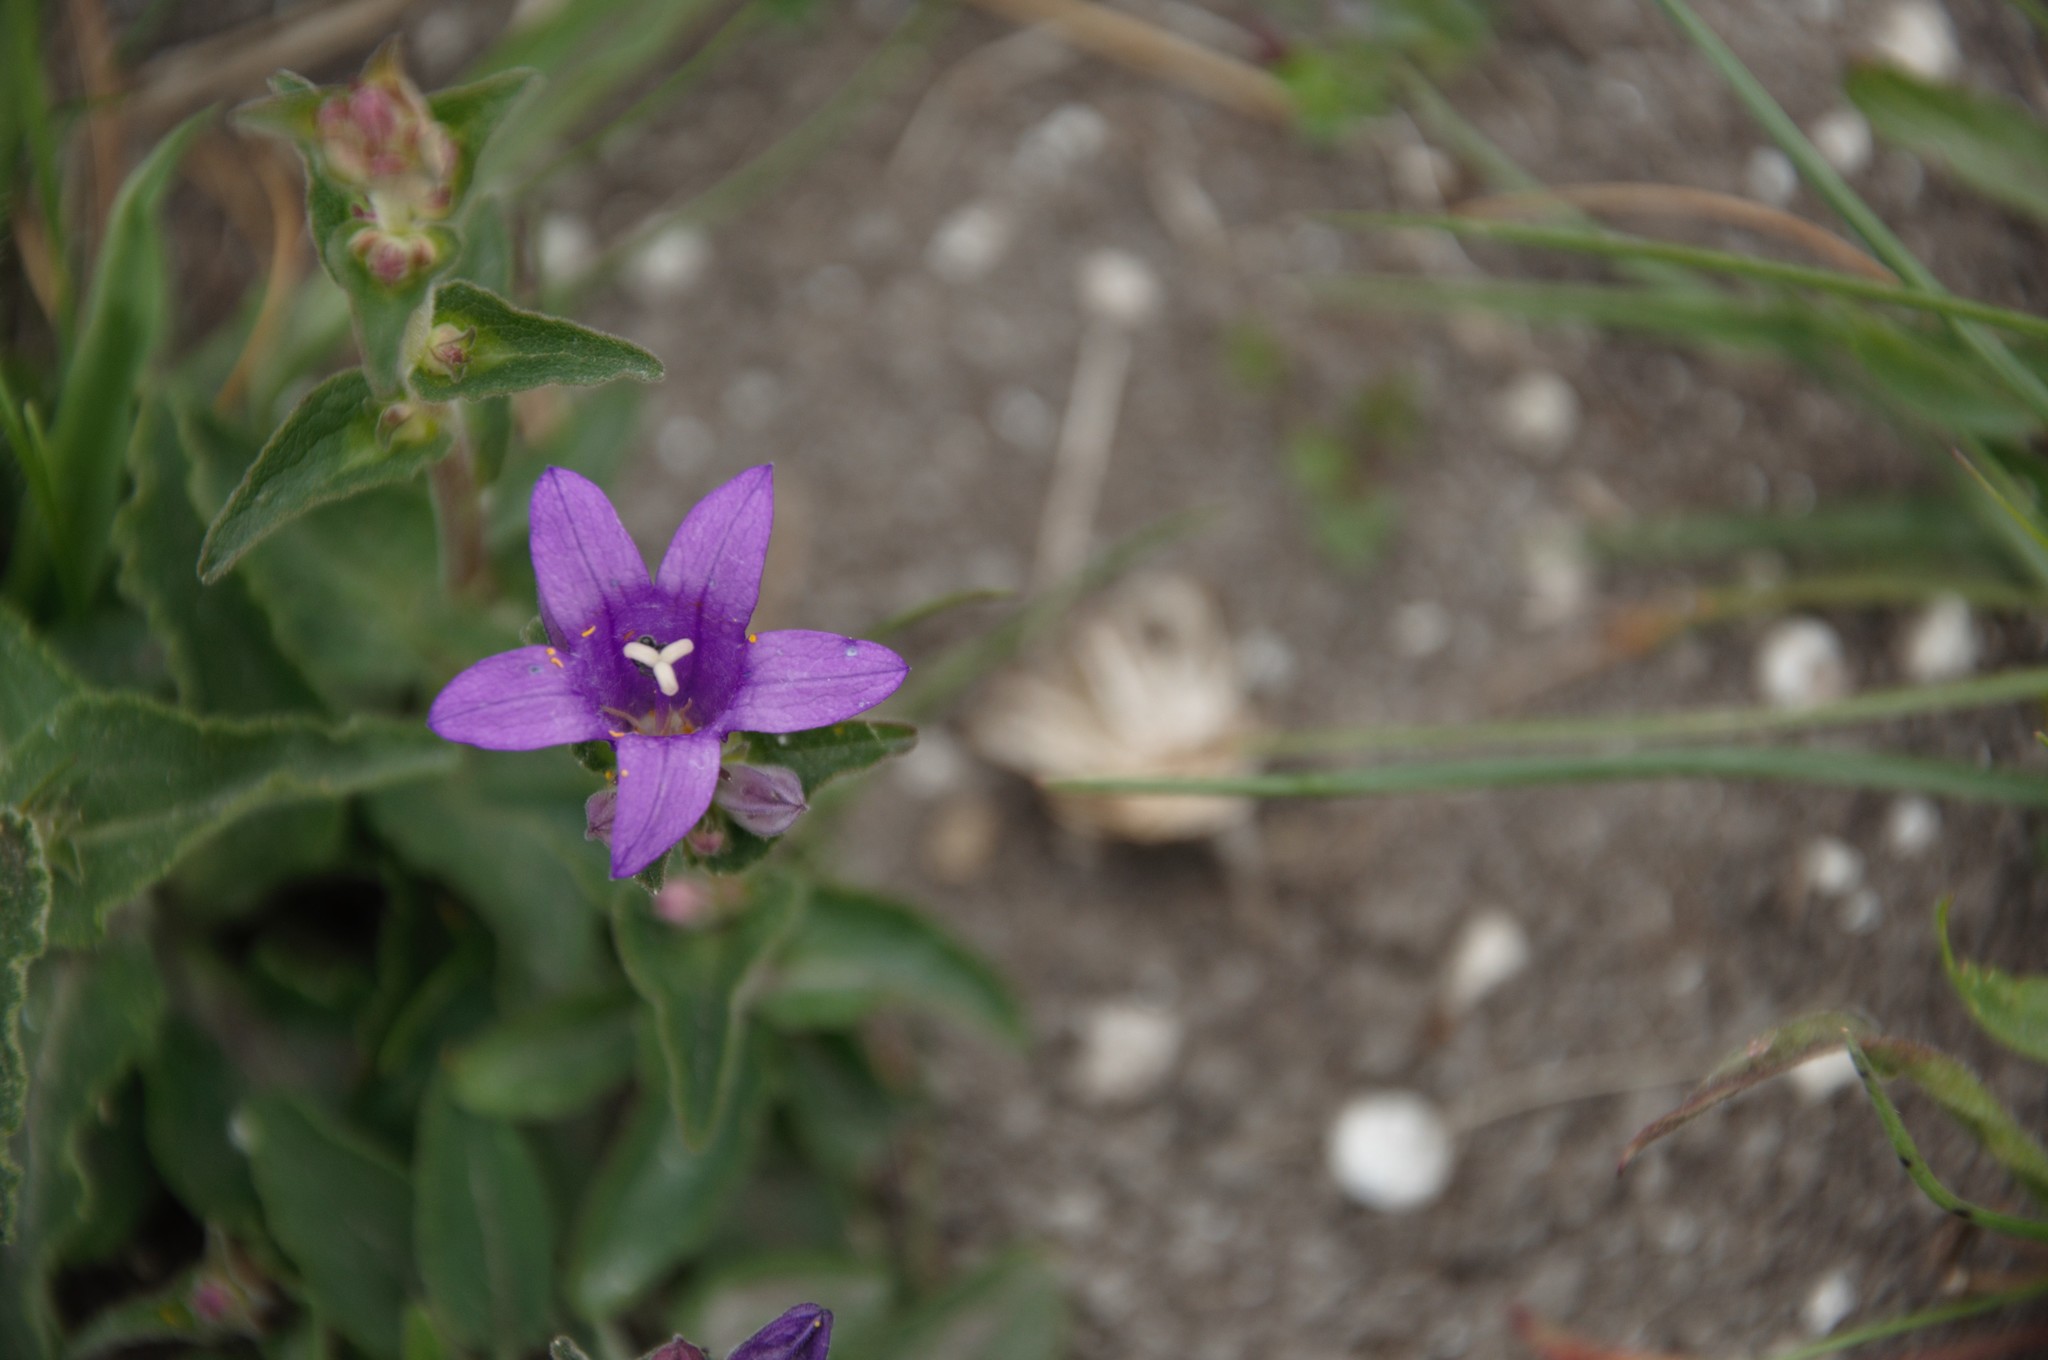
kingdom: Plantae
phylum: Tracheophyta
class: Magnoliopsida
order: Asterales
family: Campanulaceae
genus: Campanula
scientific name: Campanula glomerata
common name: Clustered bellflower
